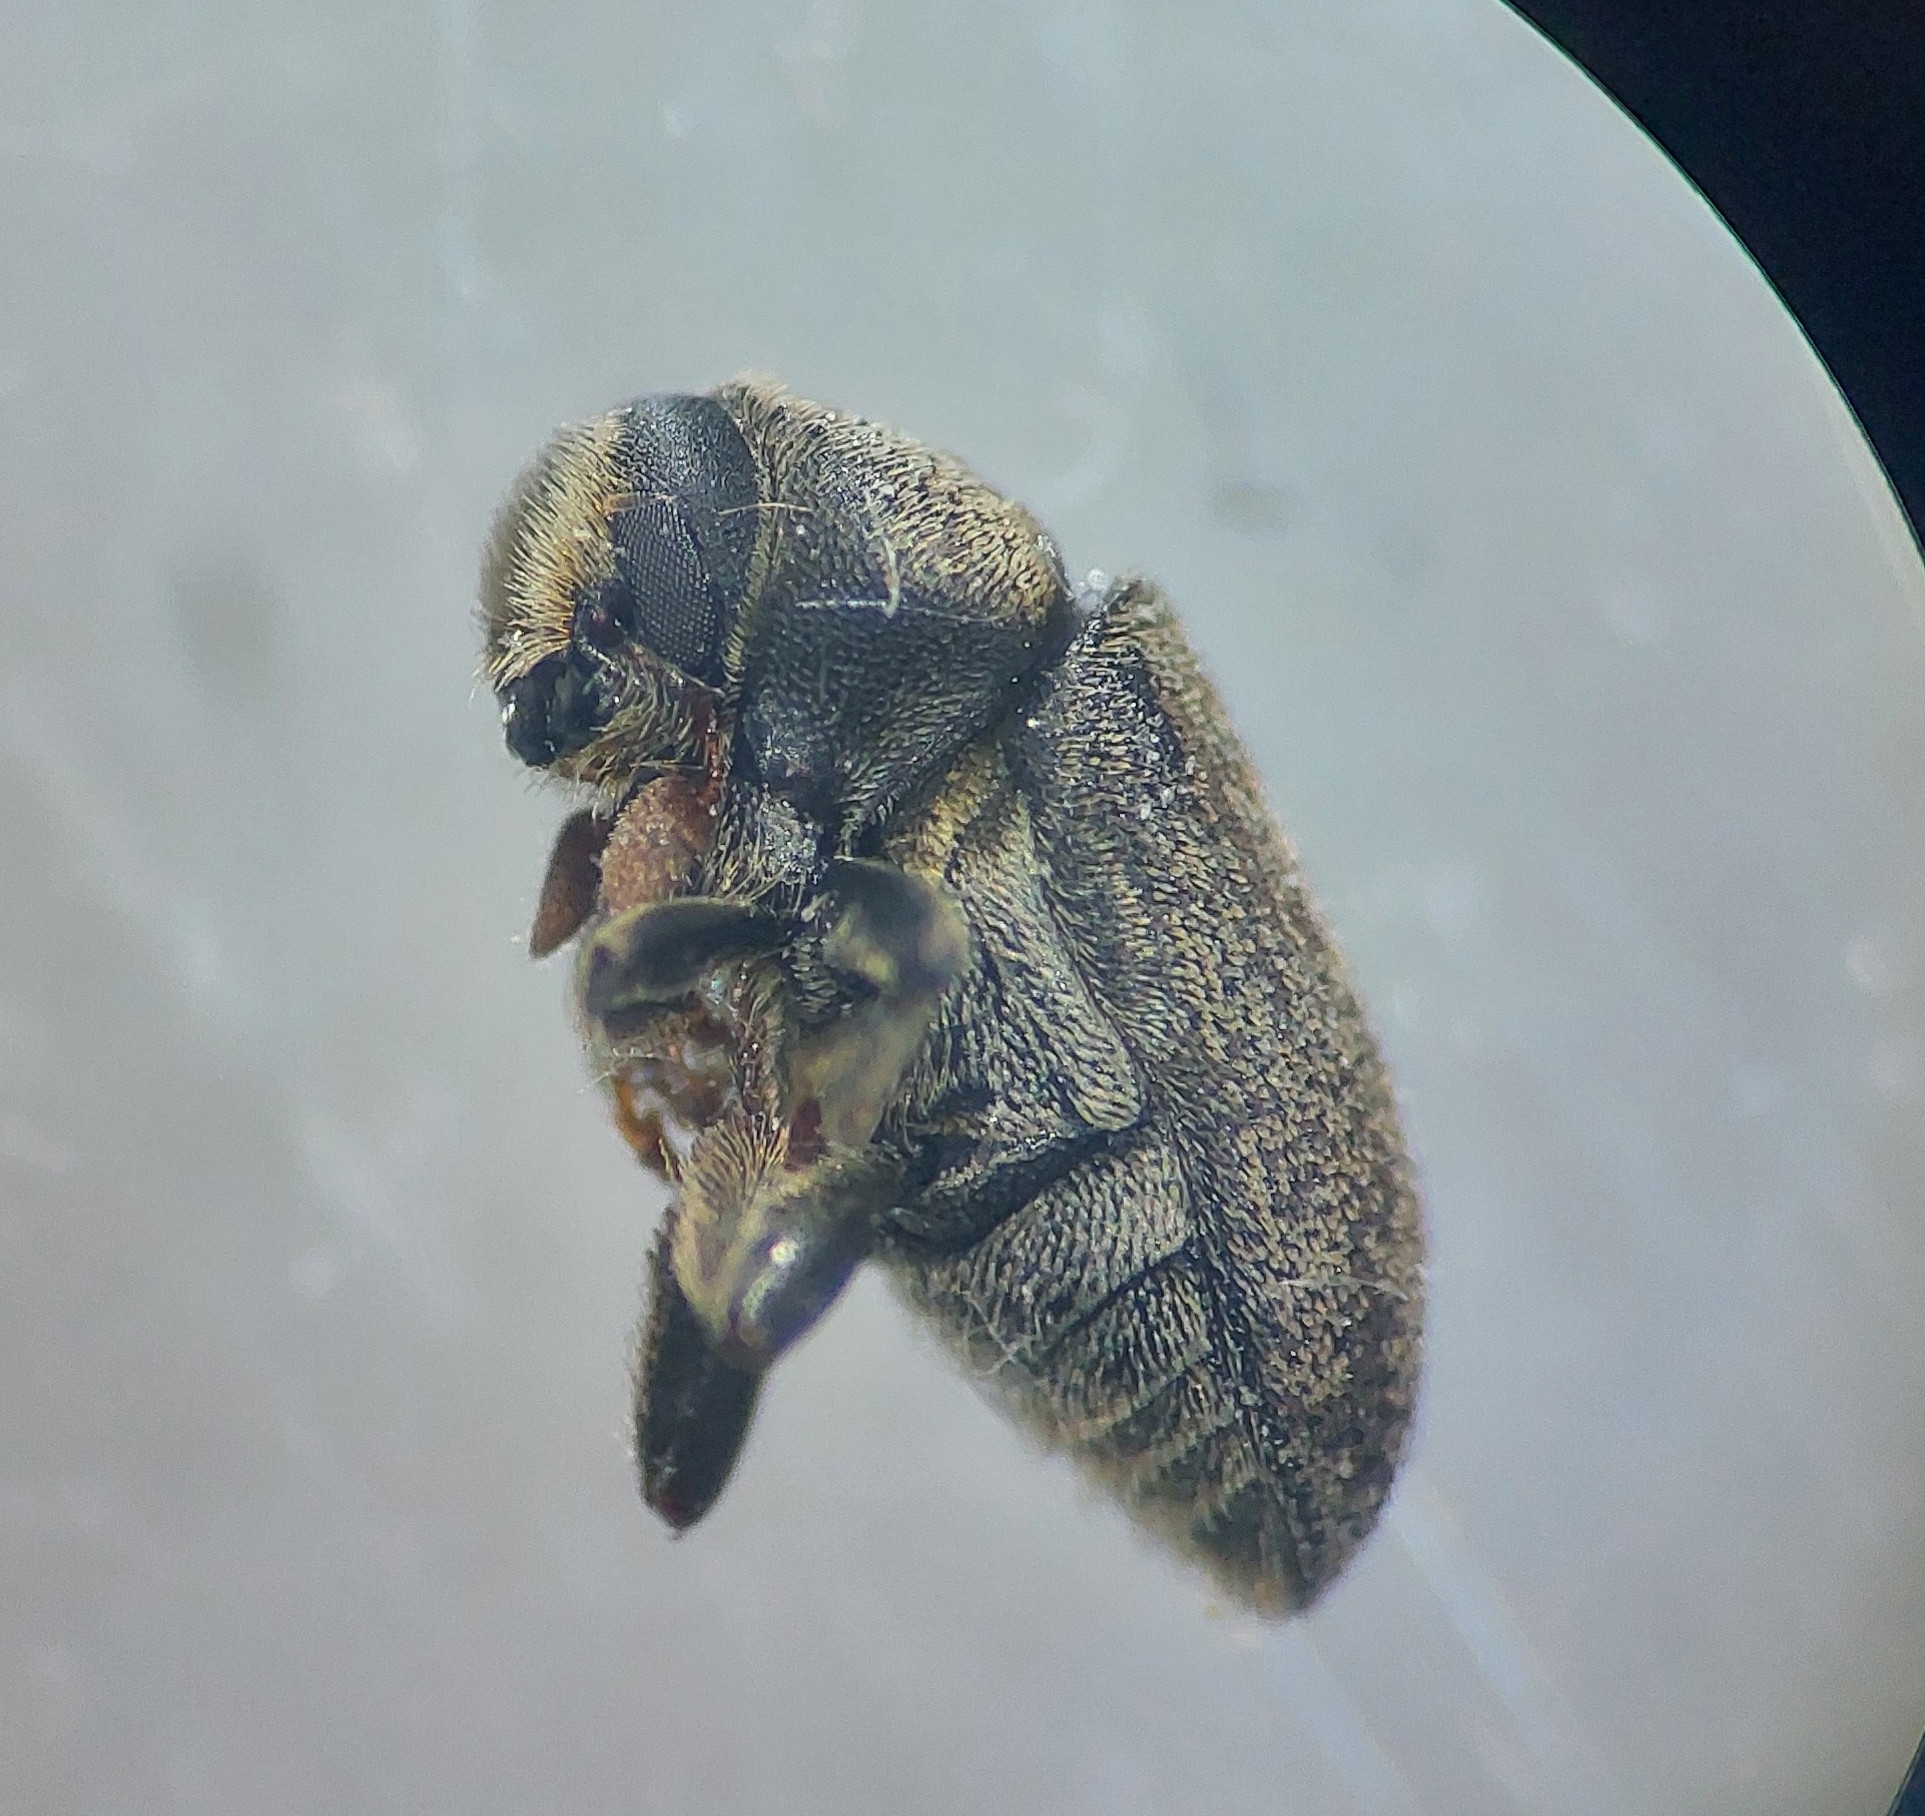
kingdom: Animalia
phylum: Arthropoda
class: Insecta
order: Coleoptera
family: Curculionidae
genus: Hylesinus
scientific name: Hylesinus varius
